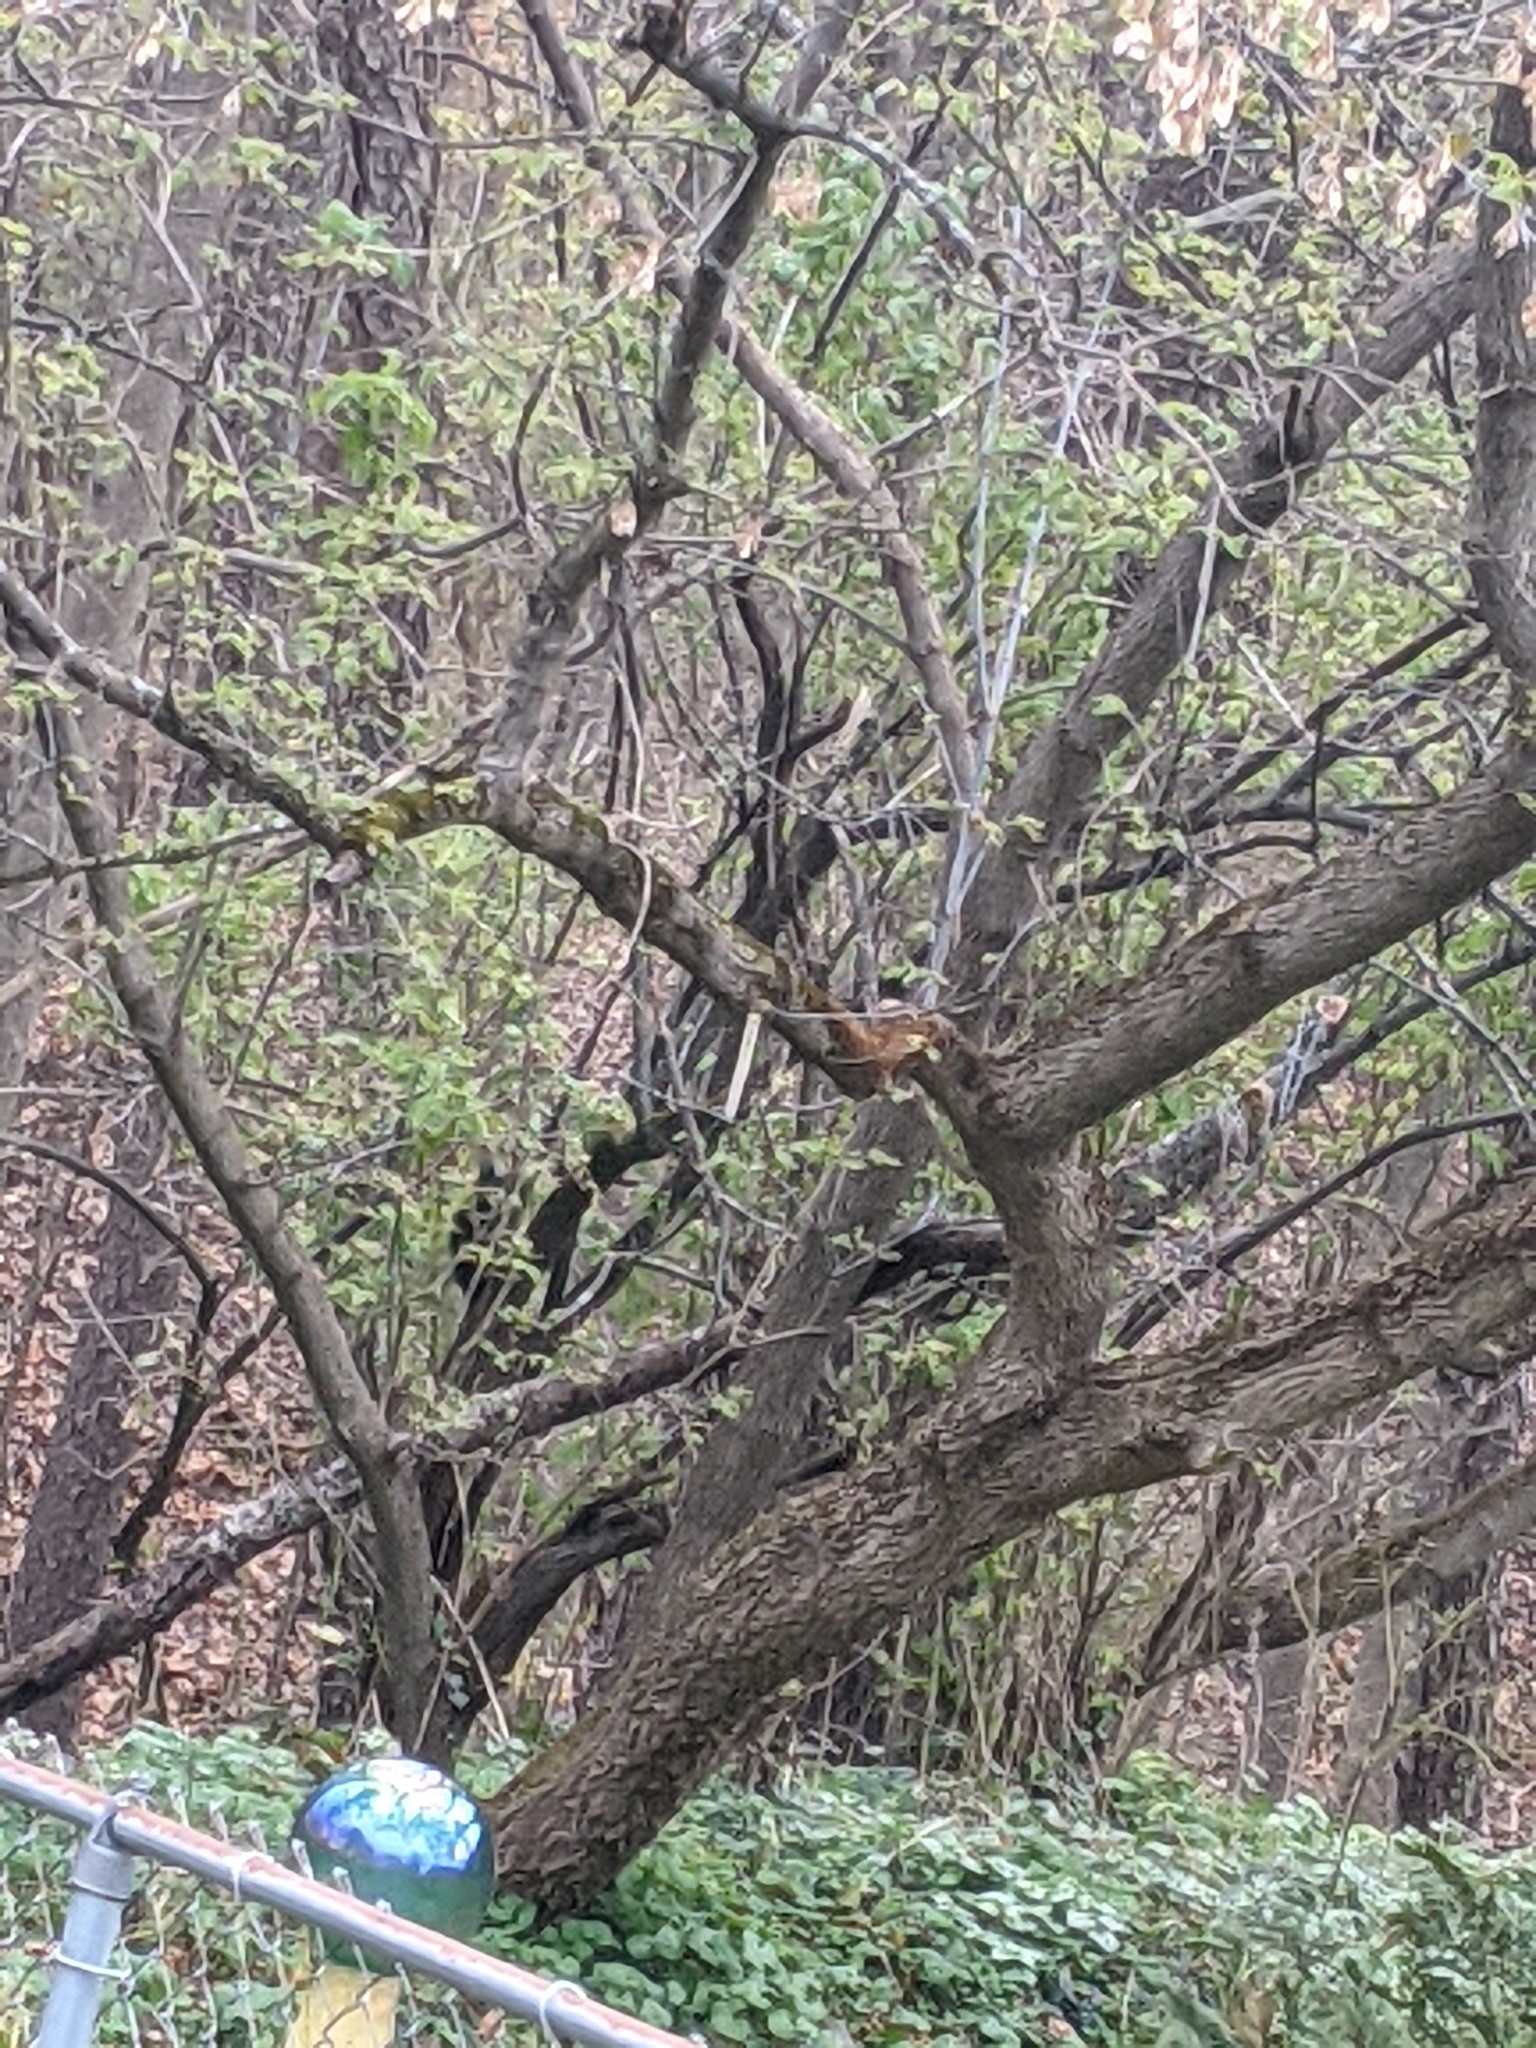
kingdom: Animalia
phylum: Chordata
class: Mammalia
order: Rodentia
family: Sciuridae
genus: Sciurus
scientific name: Sciurus carolinensis
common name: Eastern gray squirrel
